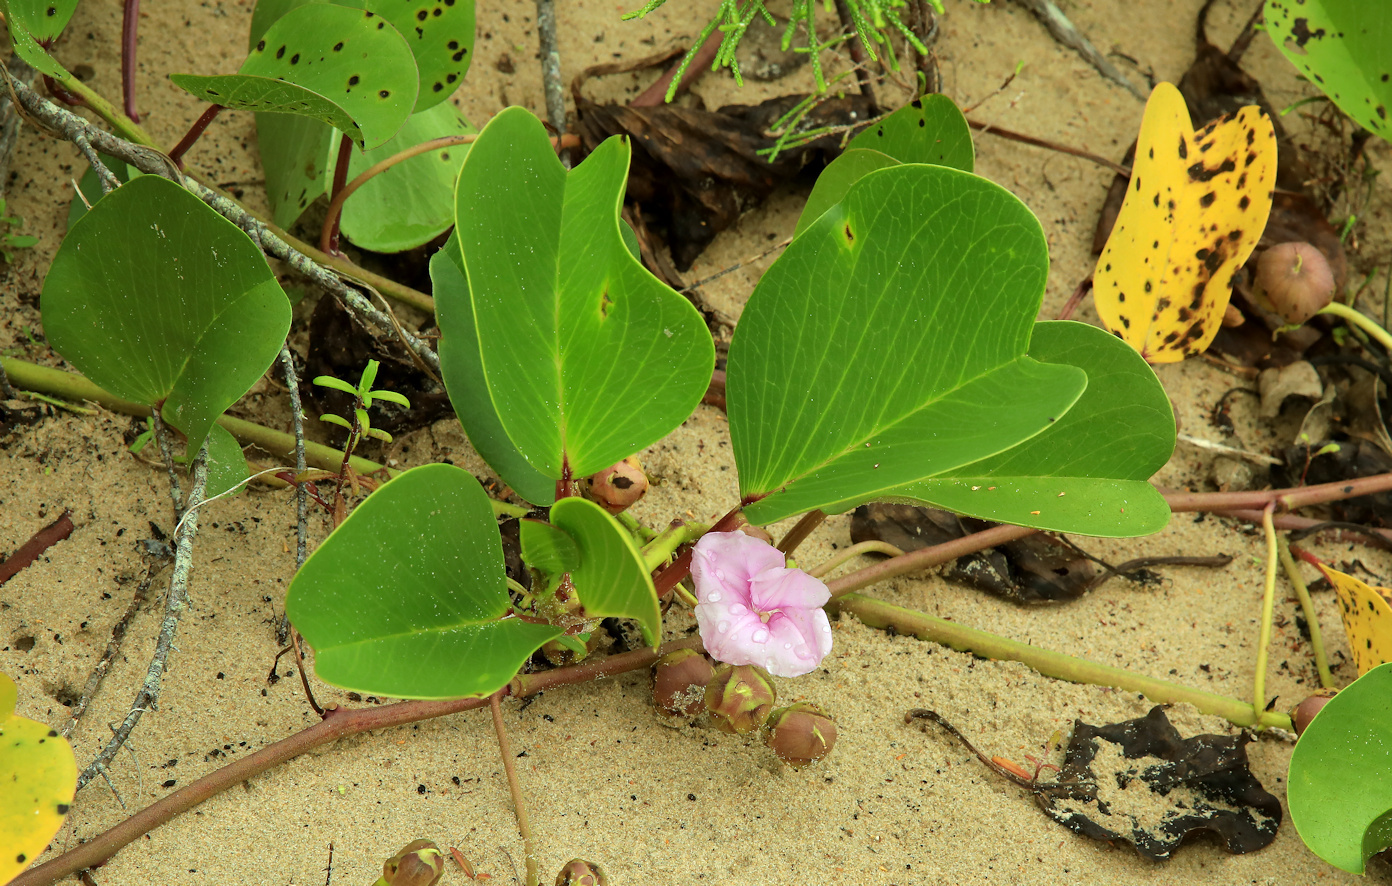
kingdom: Plantae
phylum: Tracheophyta
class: Magnoliopsida
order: Solanales
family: Convolvulaceae
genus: Ipomoea
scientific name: Ipomoea pes-caprae
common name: Beach morning glory
